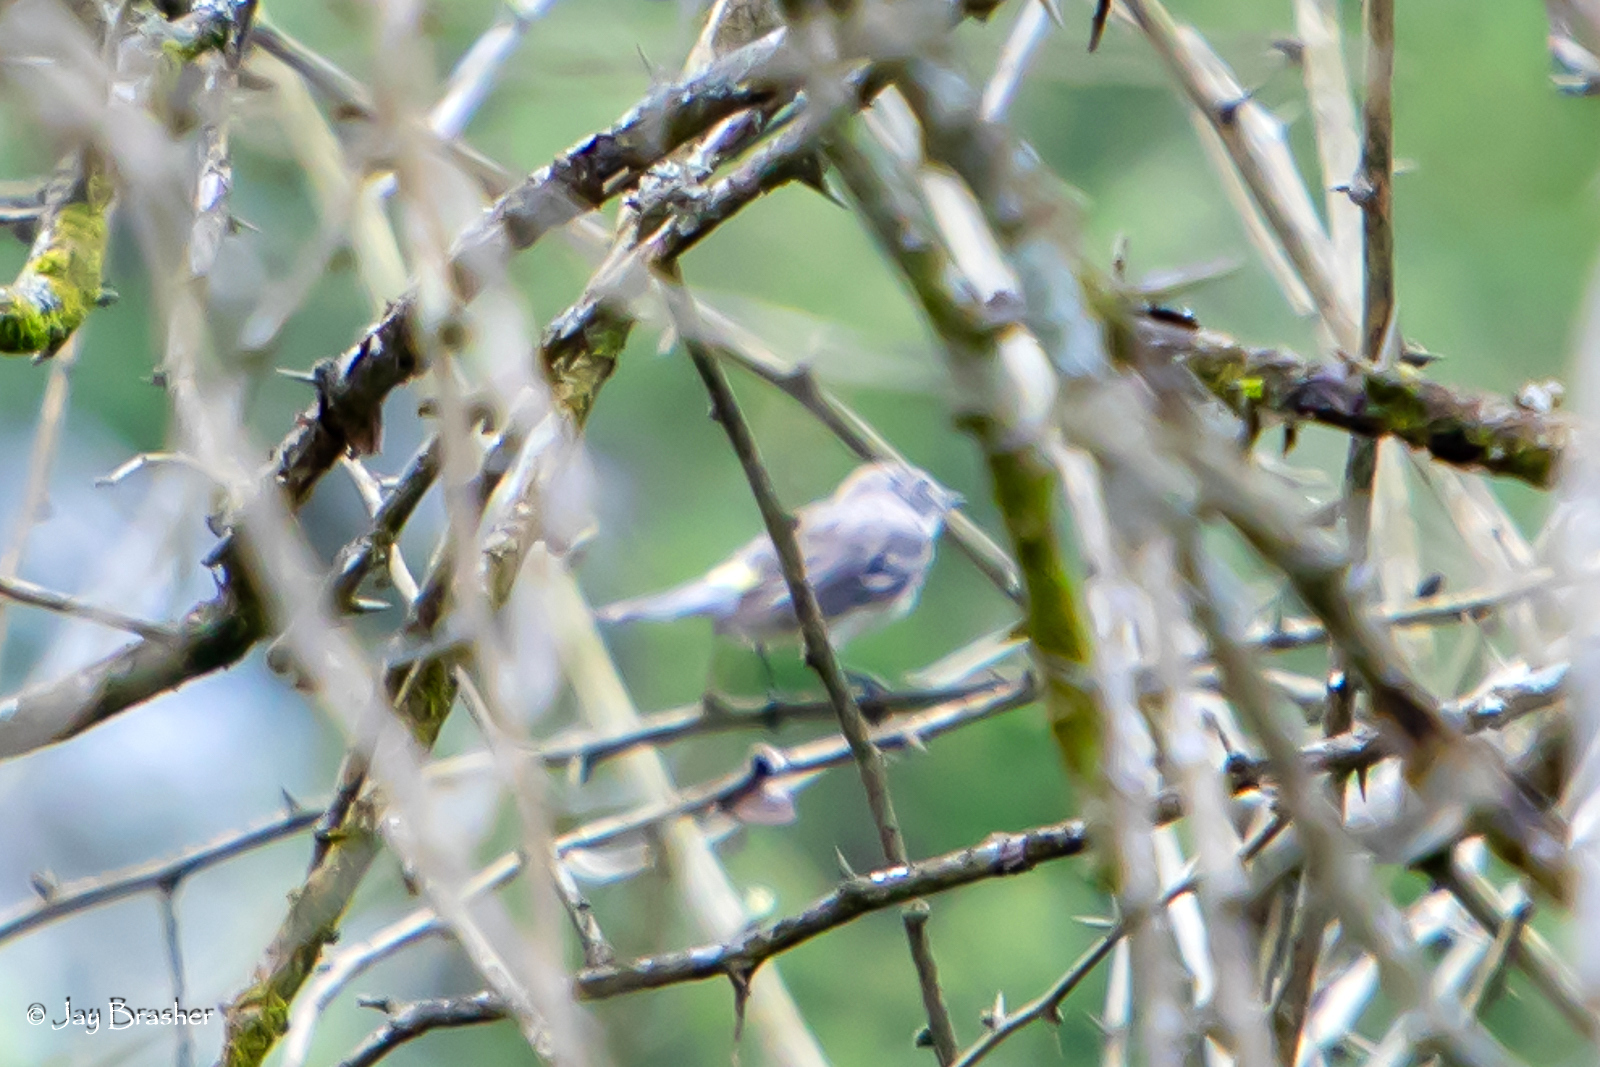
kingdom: Animalia
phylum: Chordata
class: Aves
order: Passeriformes
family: Parulidae
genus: Setophaga
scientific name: Setophaga coronata
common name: Myrtle warbler
